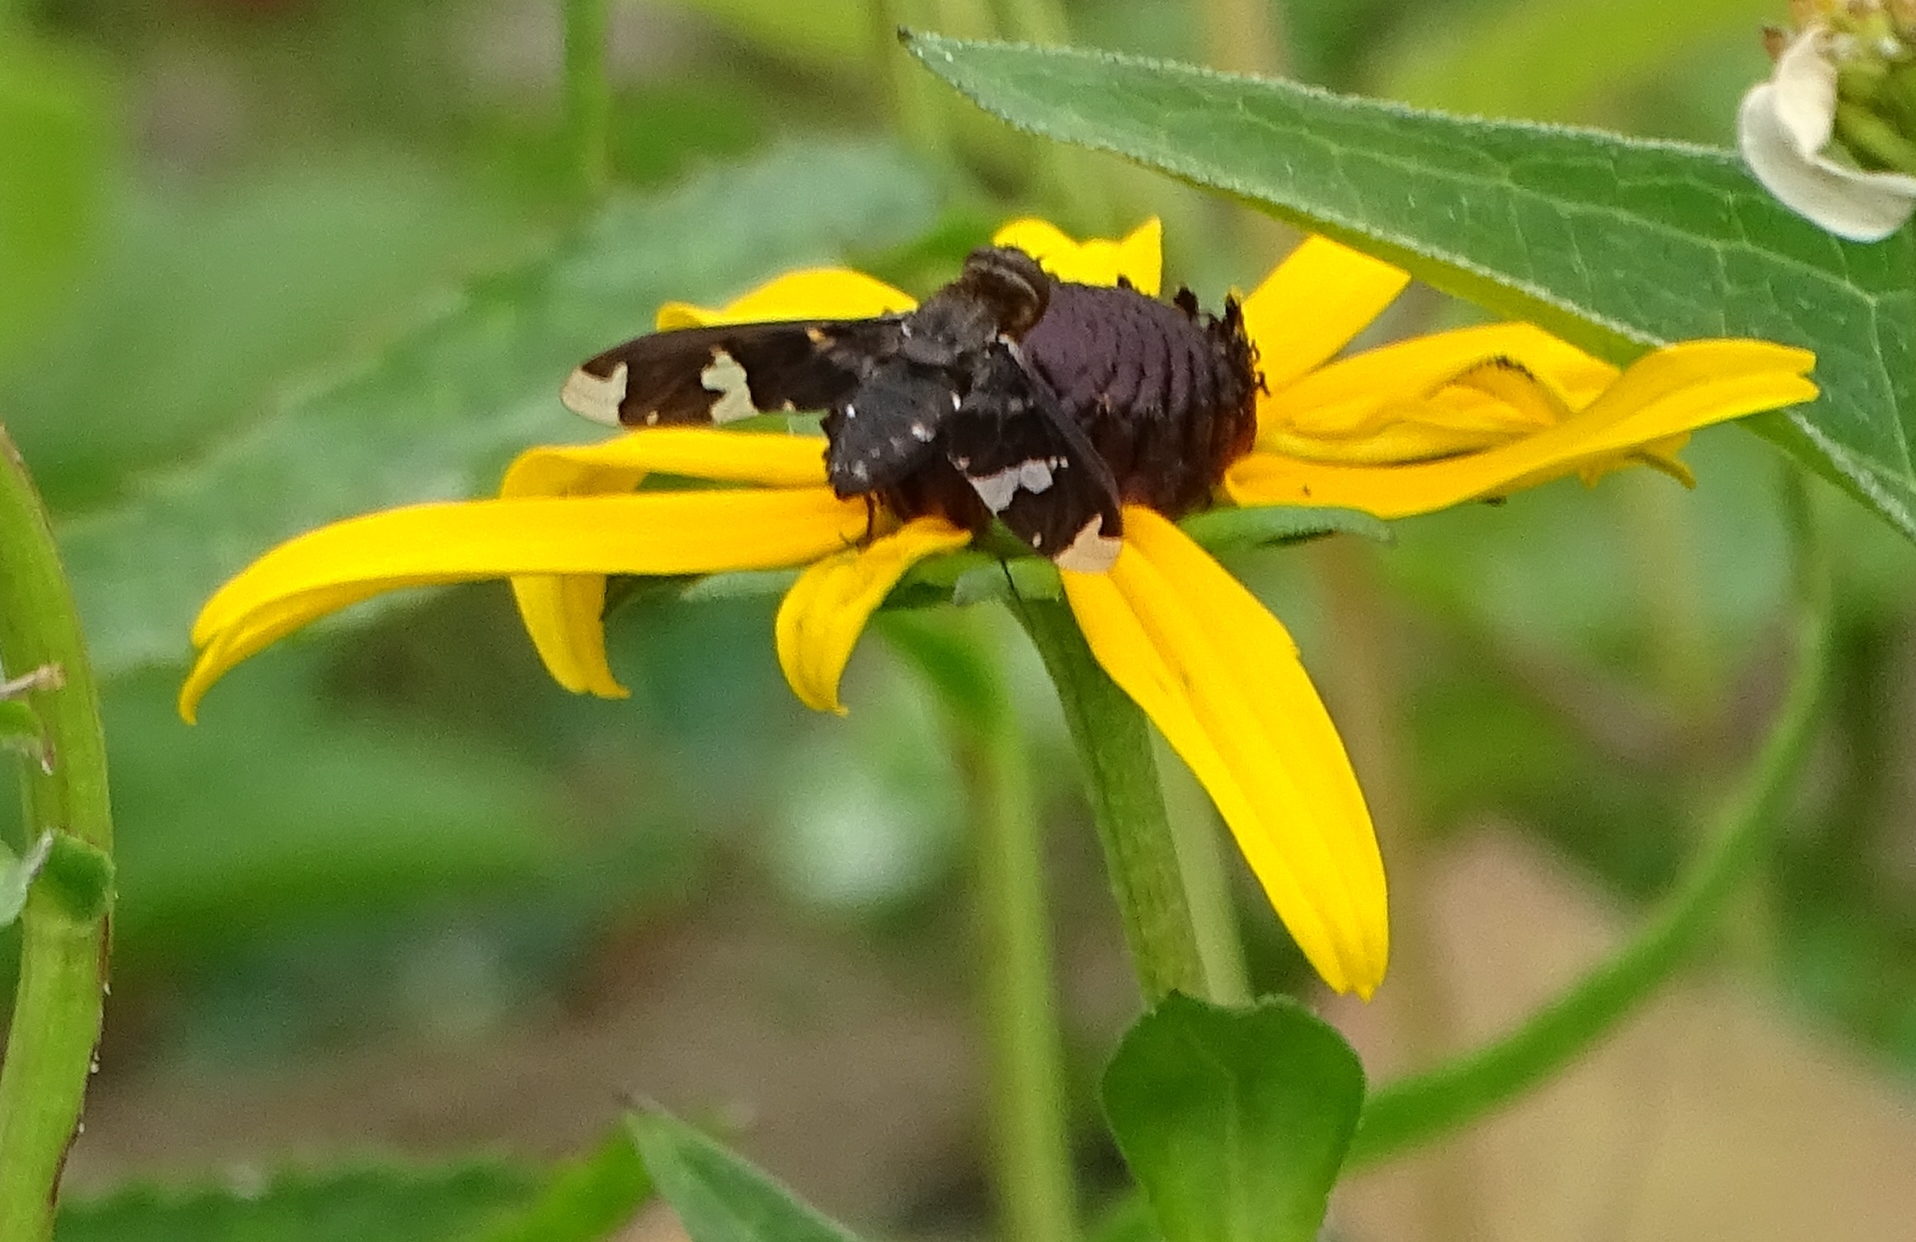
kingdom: Animalia
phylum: Arthropoda
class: Insecta
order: Diptera
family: Bombyliidae
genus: Exoprosopa
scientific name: Exoprosopa decora
